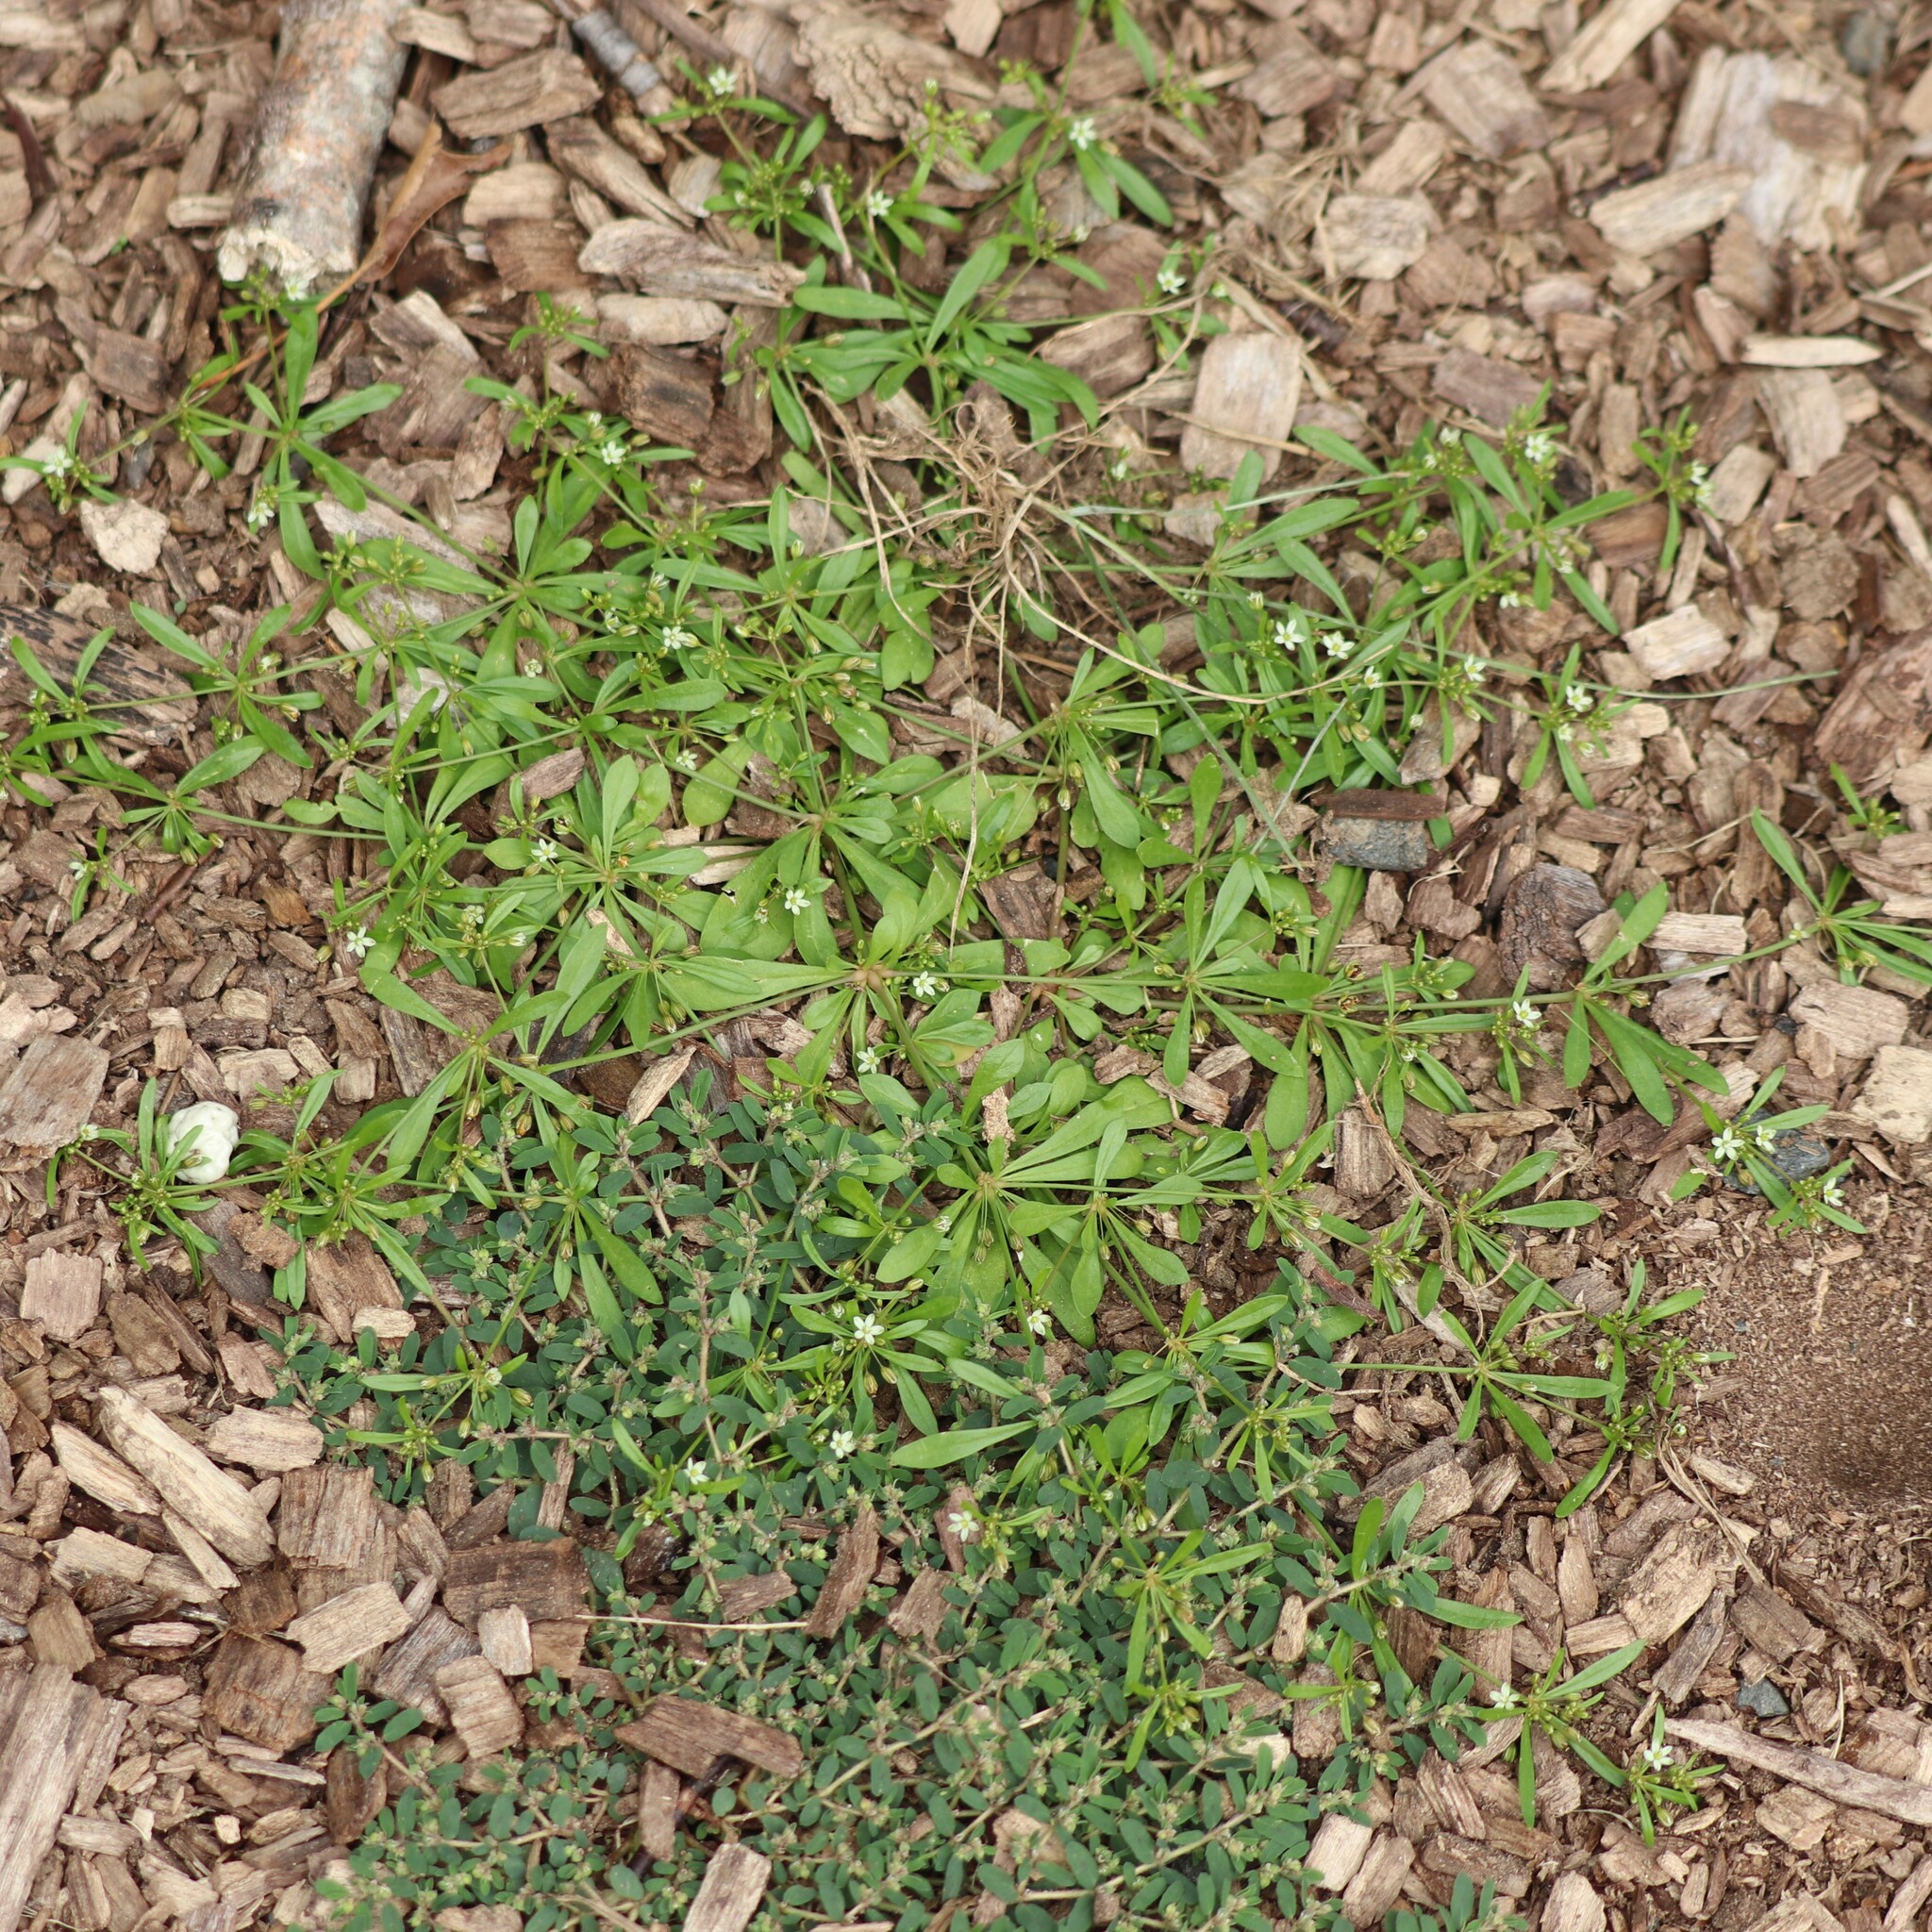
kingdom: Plantae
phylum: Tracheophyta
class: Magnoliopsida
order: Caryophyllales
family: Molluginaceae
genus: Mollugo
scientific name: Mollugo verticillata
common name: Green carpetweed
